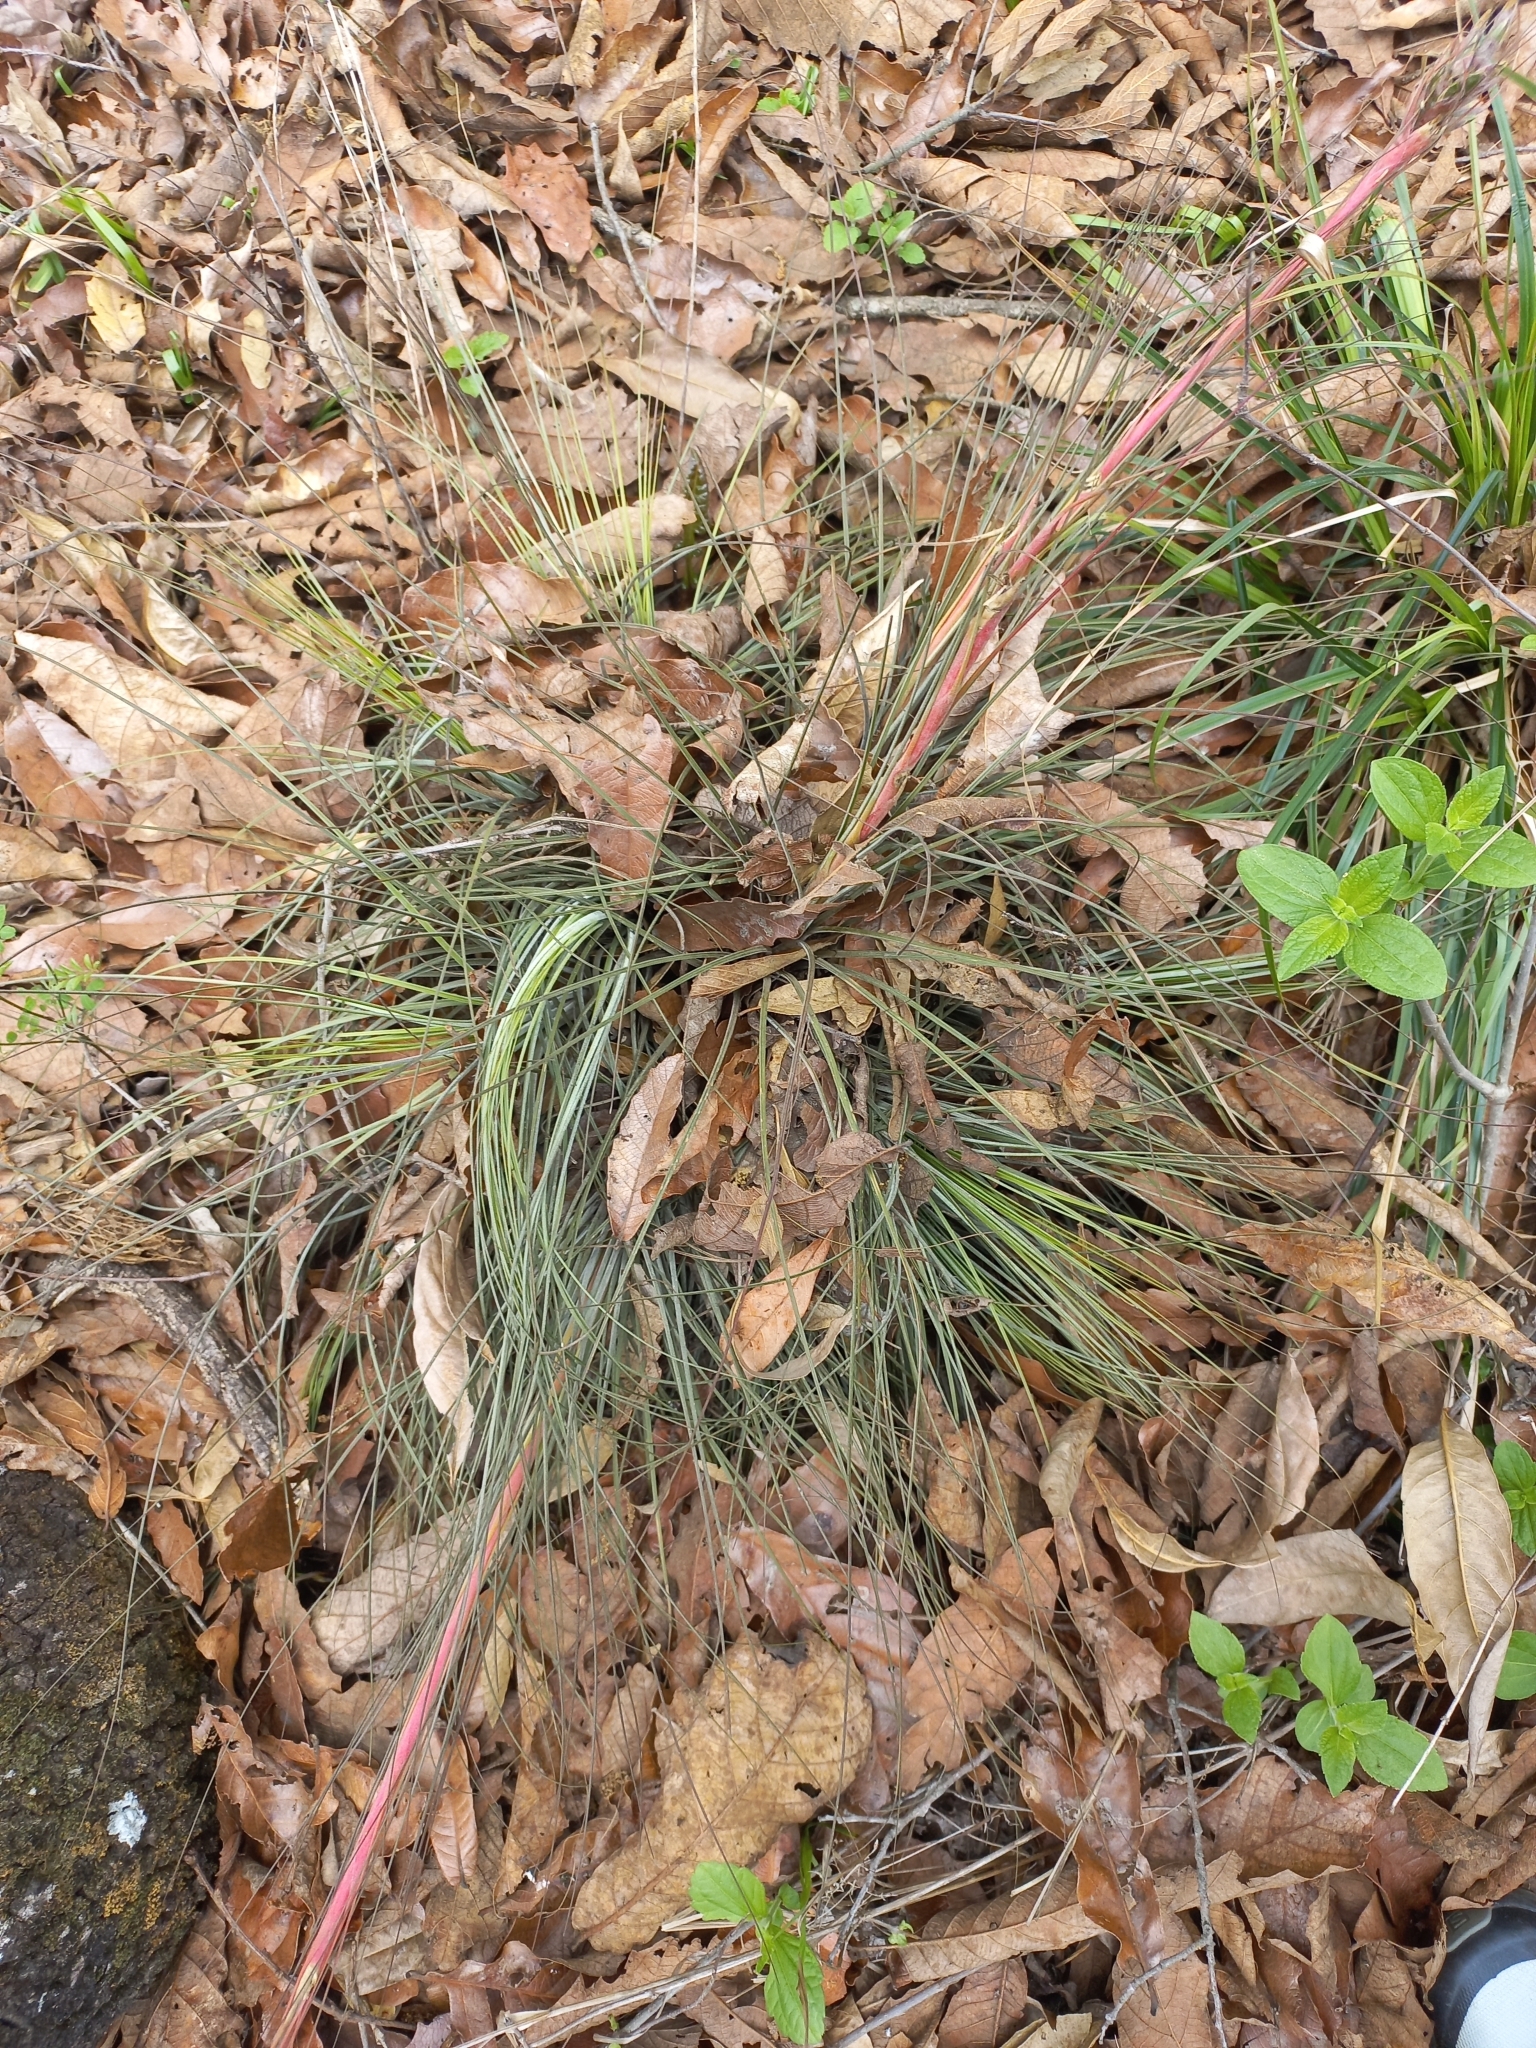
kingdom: Plantae
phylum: Tracheophyta
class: Liliopsida
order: Poales
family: Bromeliaceae
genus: Tillandsia
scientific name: Tillandsia juncea
